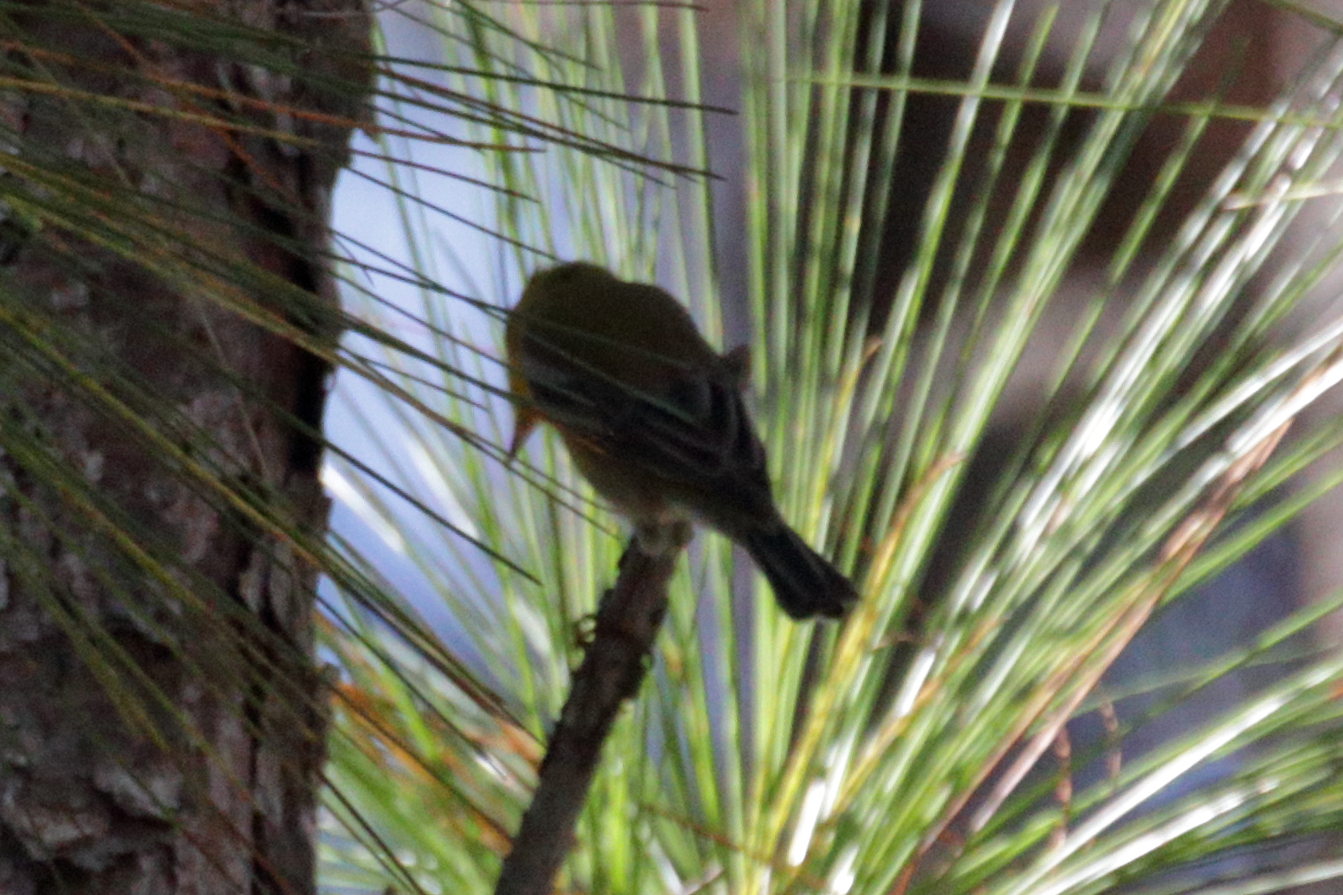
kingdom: Animalia
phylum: Chordata
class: Aves
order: Passeriformes
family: Parulidae
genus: Setophaga
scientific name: Setophaga pinus
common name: Pine warbler
